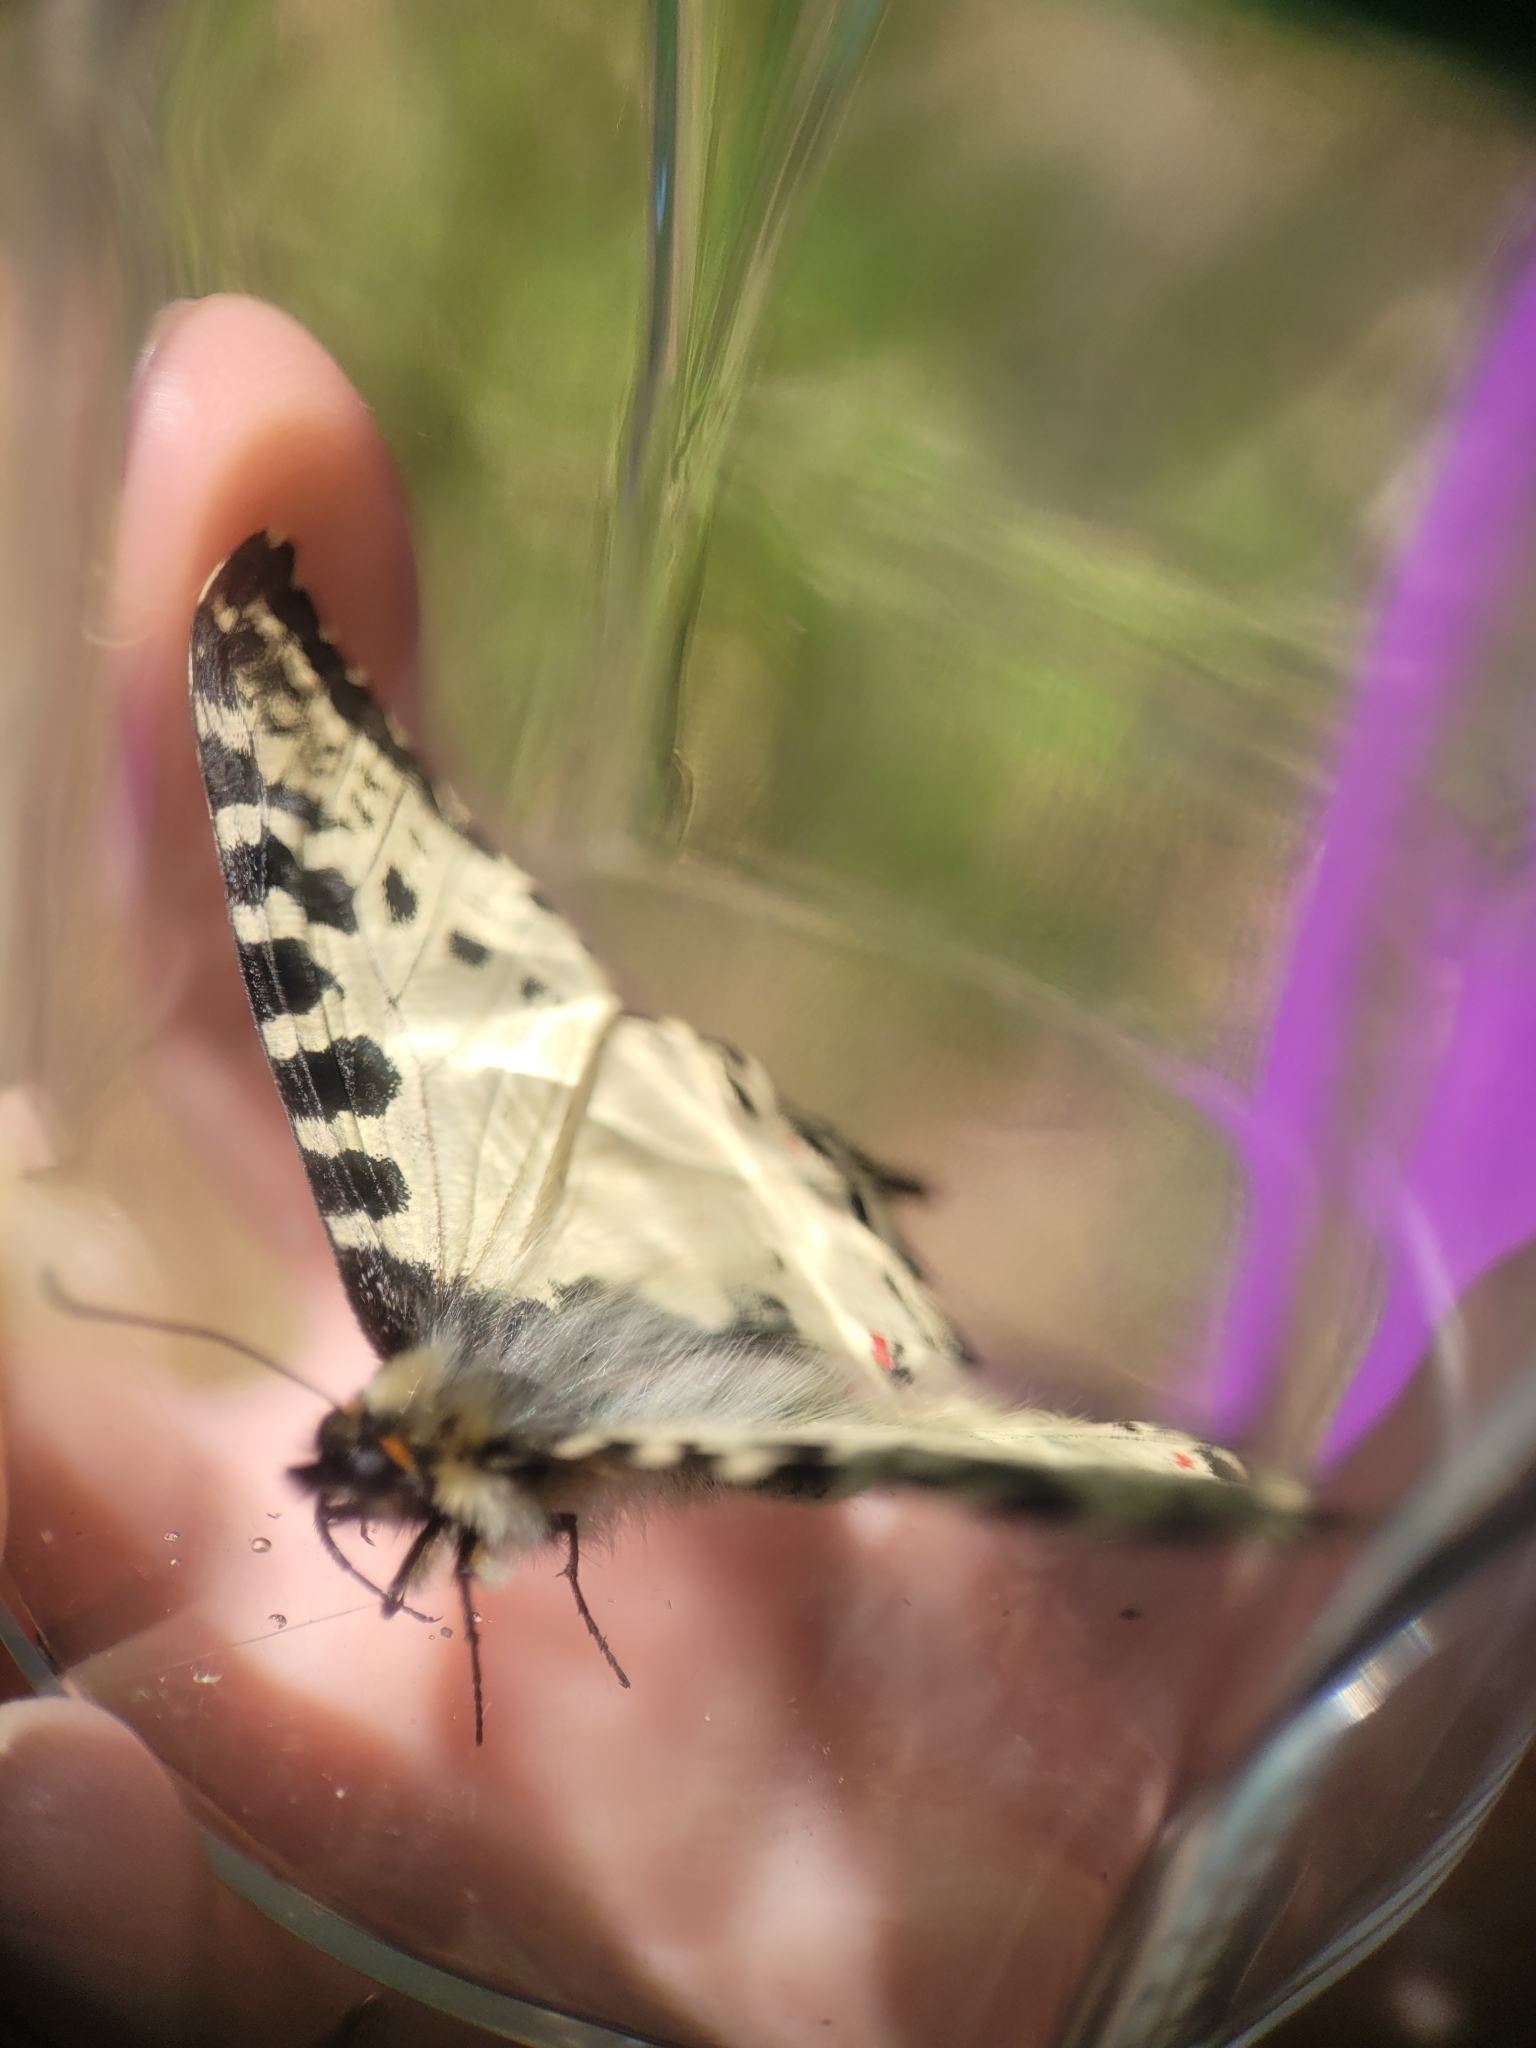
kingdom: Animalia
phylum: Arthropoda
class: Insecta
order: Lepidoptera
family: Papilionidae
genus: Zerynthia
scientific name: Zerynthia cerisy
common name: Eastern festoon
